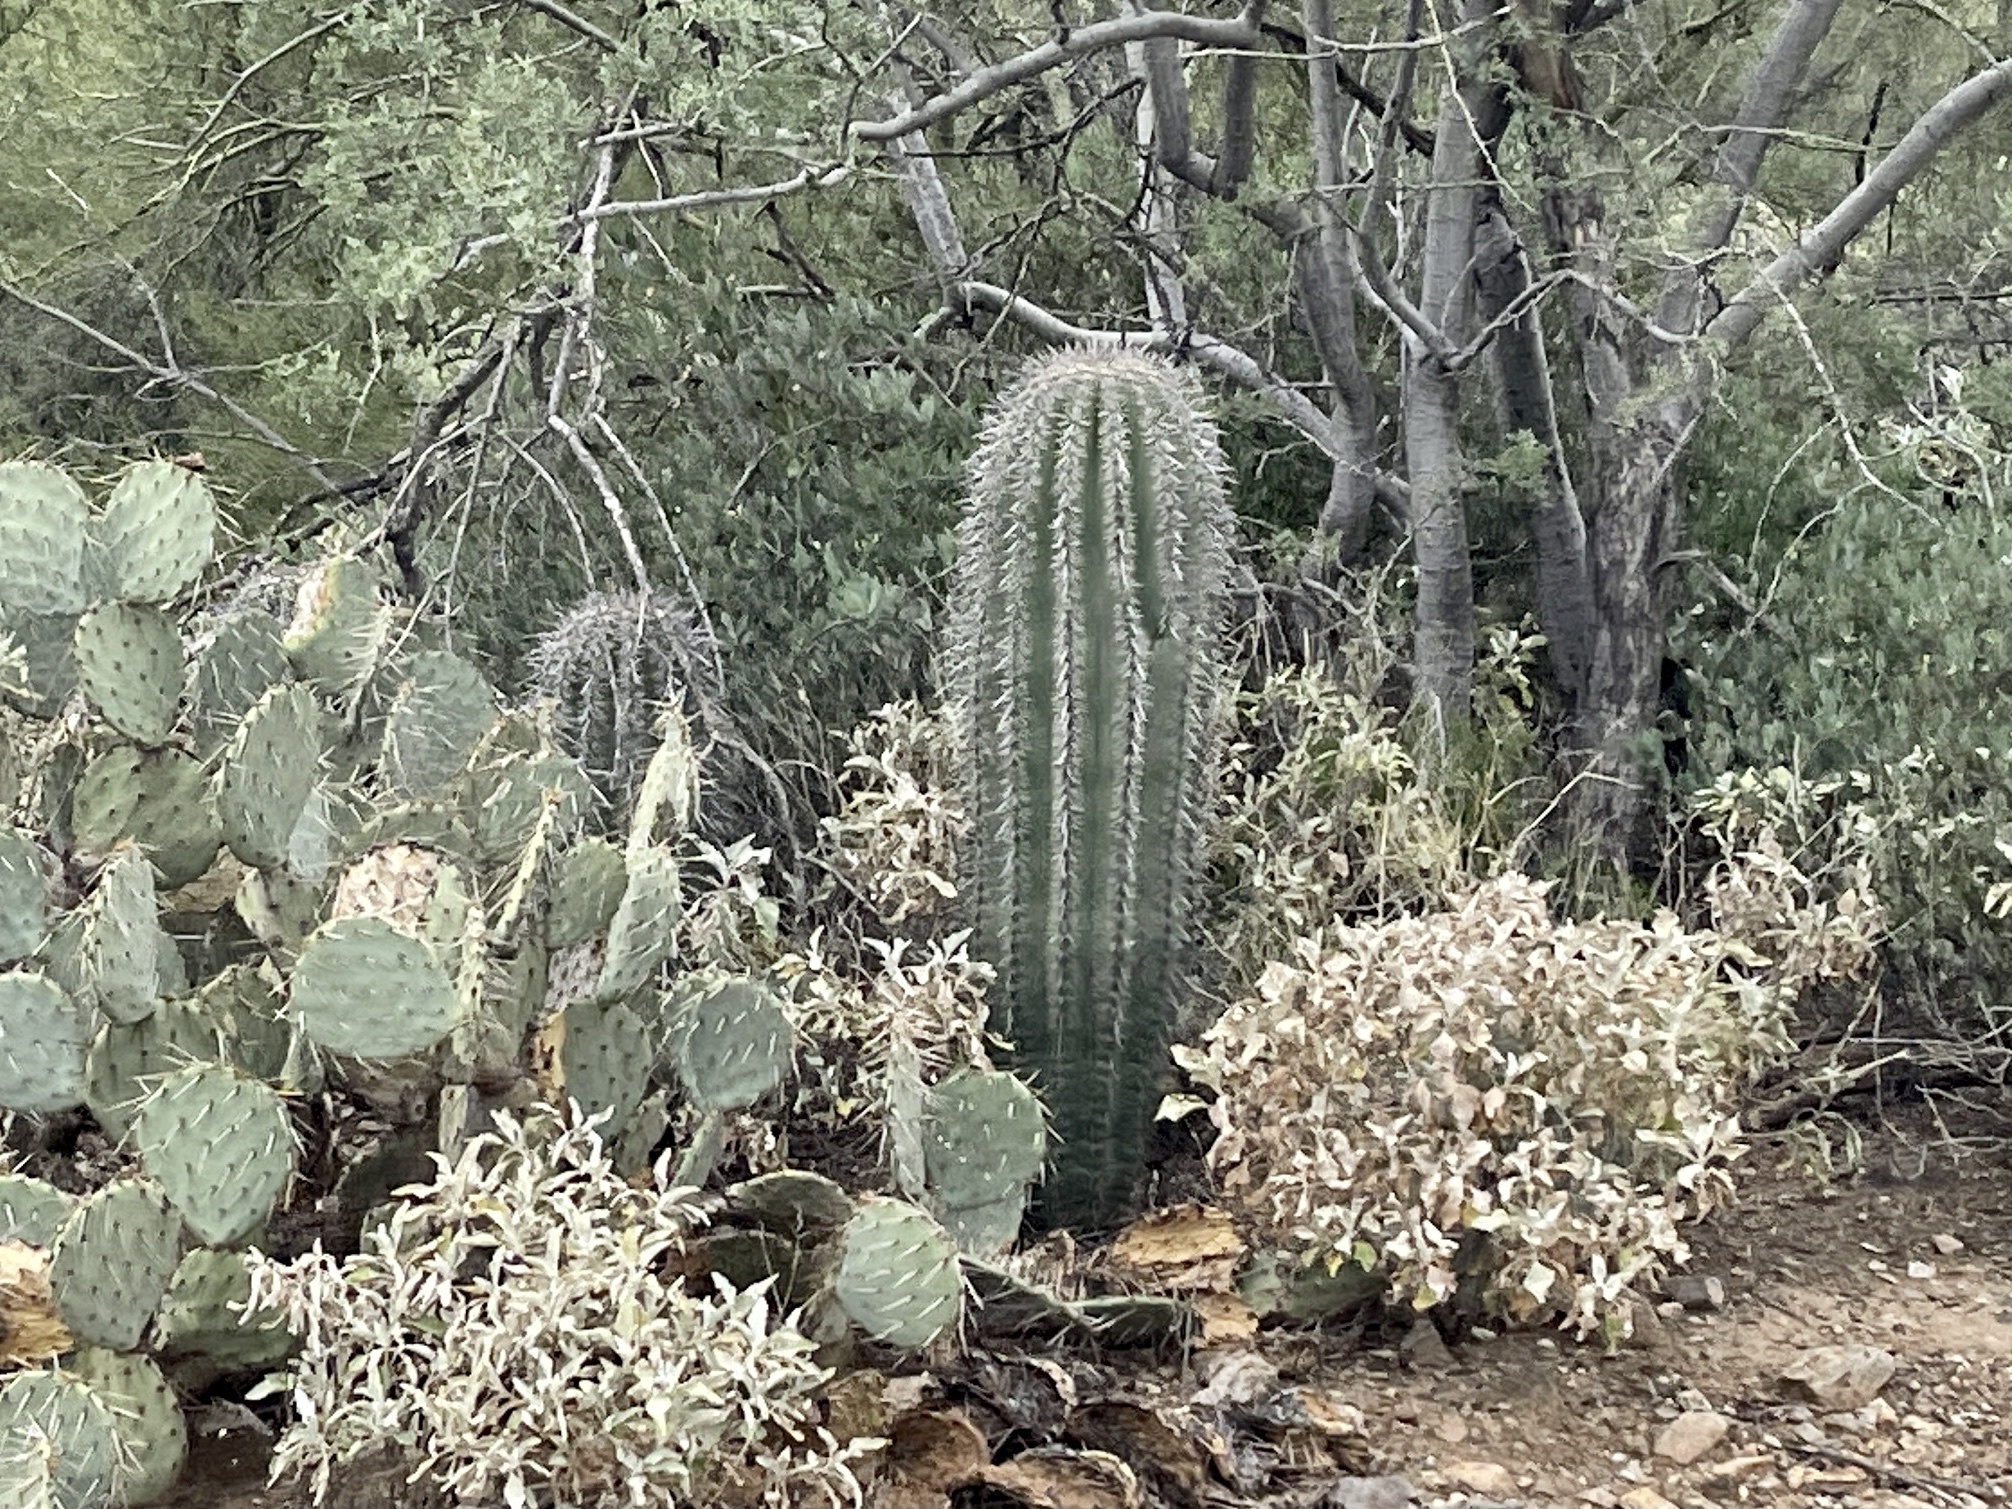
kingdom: Plantae
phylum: Tracheophyta
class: Magnoliopsida
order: Caryophyllales
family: Cactaceae
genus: Carnegiea
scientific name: Carnegiea gigantea
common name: Saguaro
